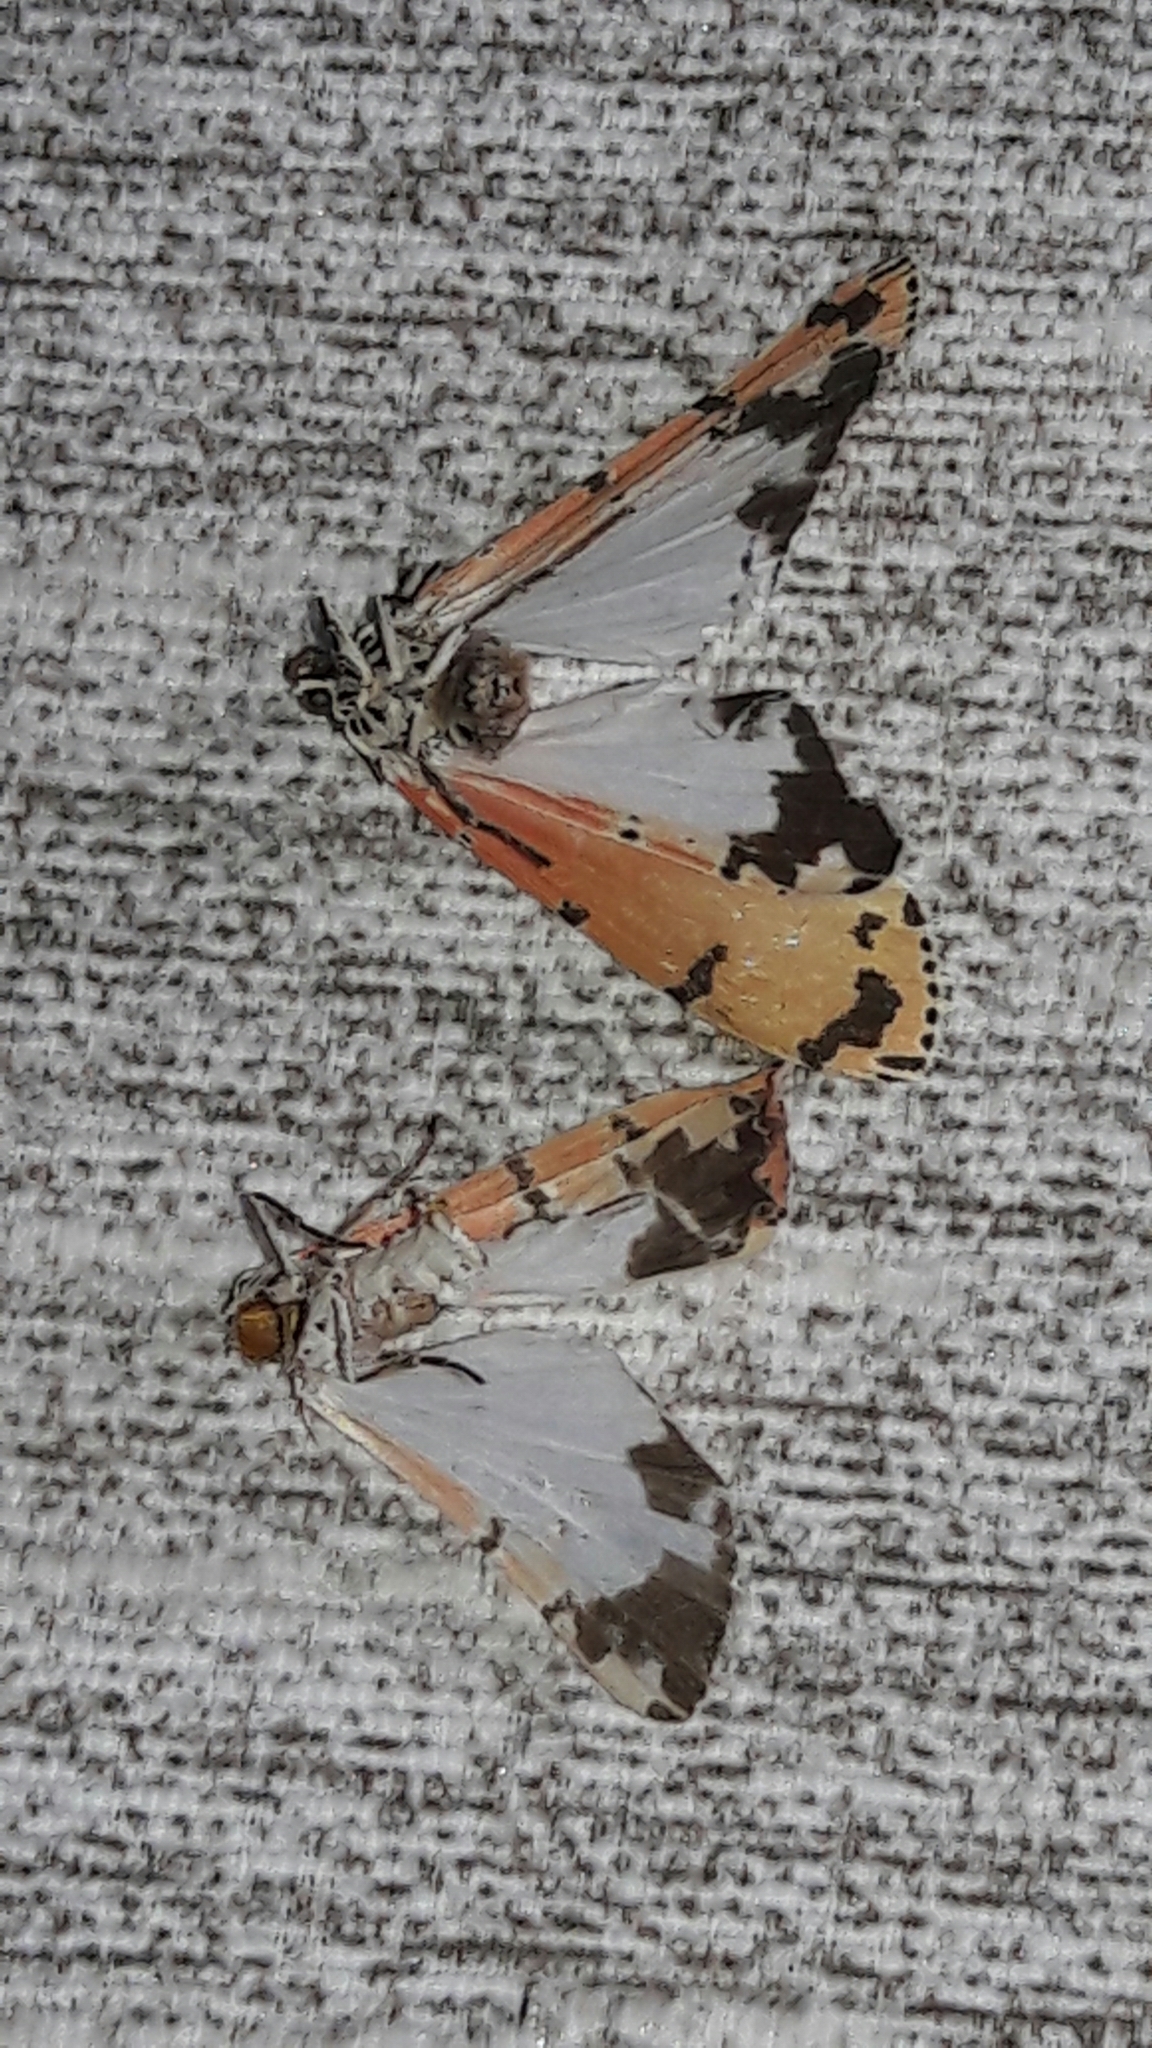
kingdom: Animalia
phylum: Arthropoda
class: Insecta
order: Lepidoptera
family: Erebidae
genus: Utetheisa
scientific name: Utetheisa ornatrix
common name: Beautiful utetheisa
